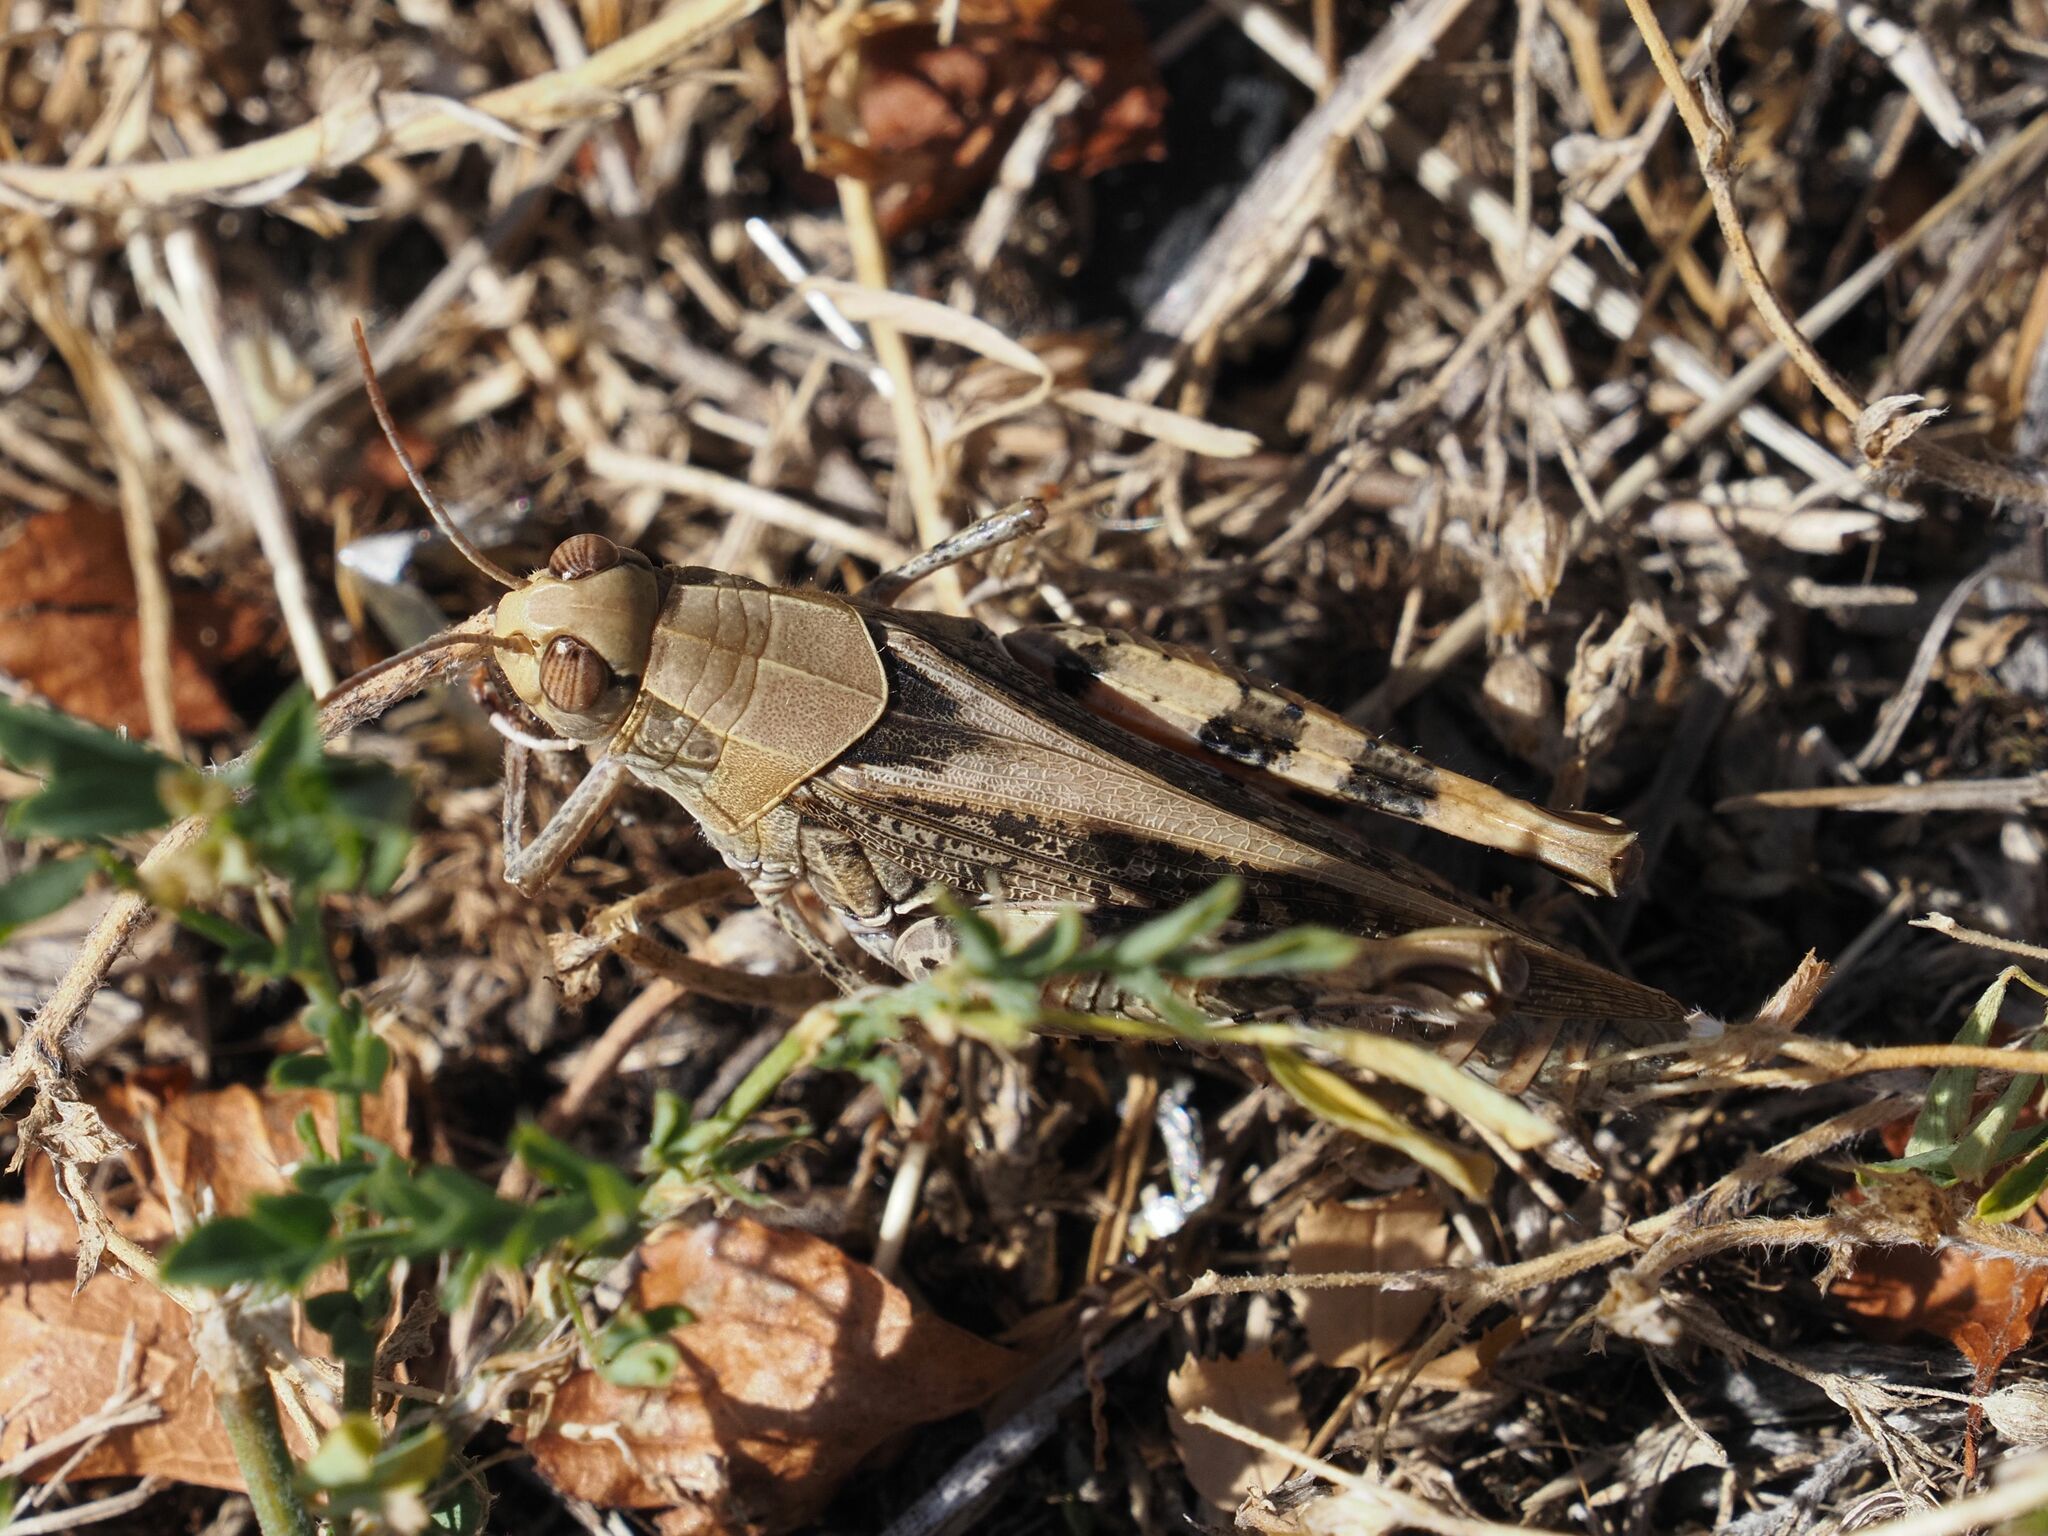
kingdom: Animalia
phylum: Arthropoda
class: Insecta
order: Orthoptera
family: Acrididae
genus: Calliptamus
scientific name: Calliptamus italicus
